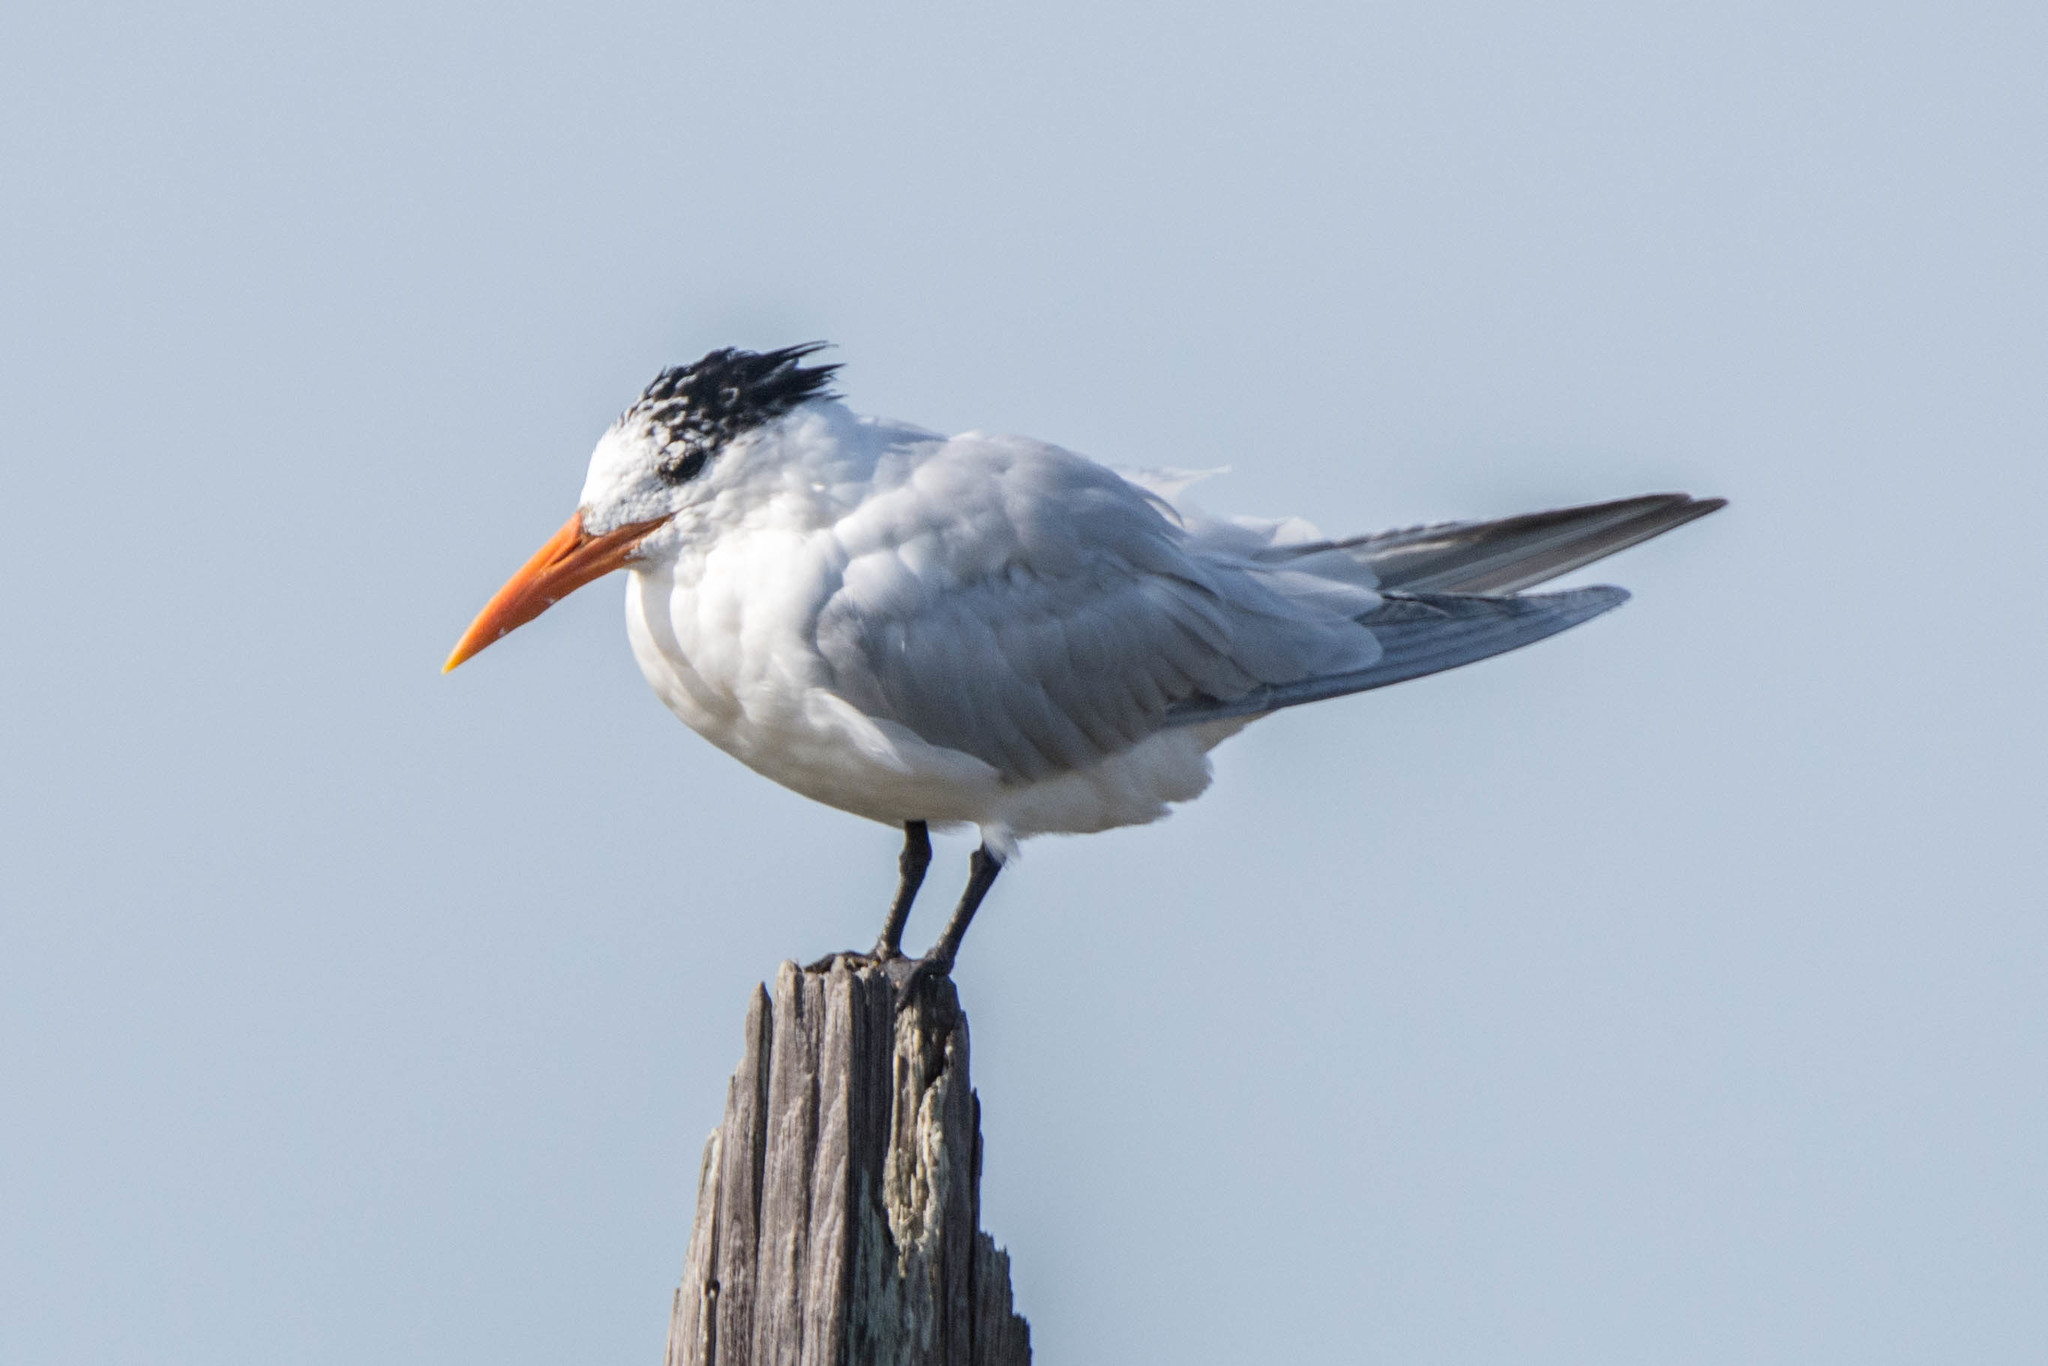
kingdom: Animalia
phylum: Chordata
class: Aves
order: Charadriiformes
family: Laridae
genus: Thalasseus
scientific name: Thalasseus maximus
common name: Royal tern
